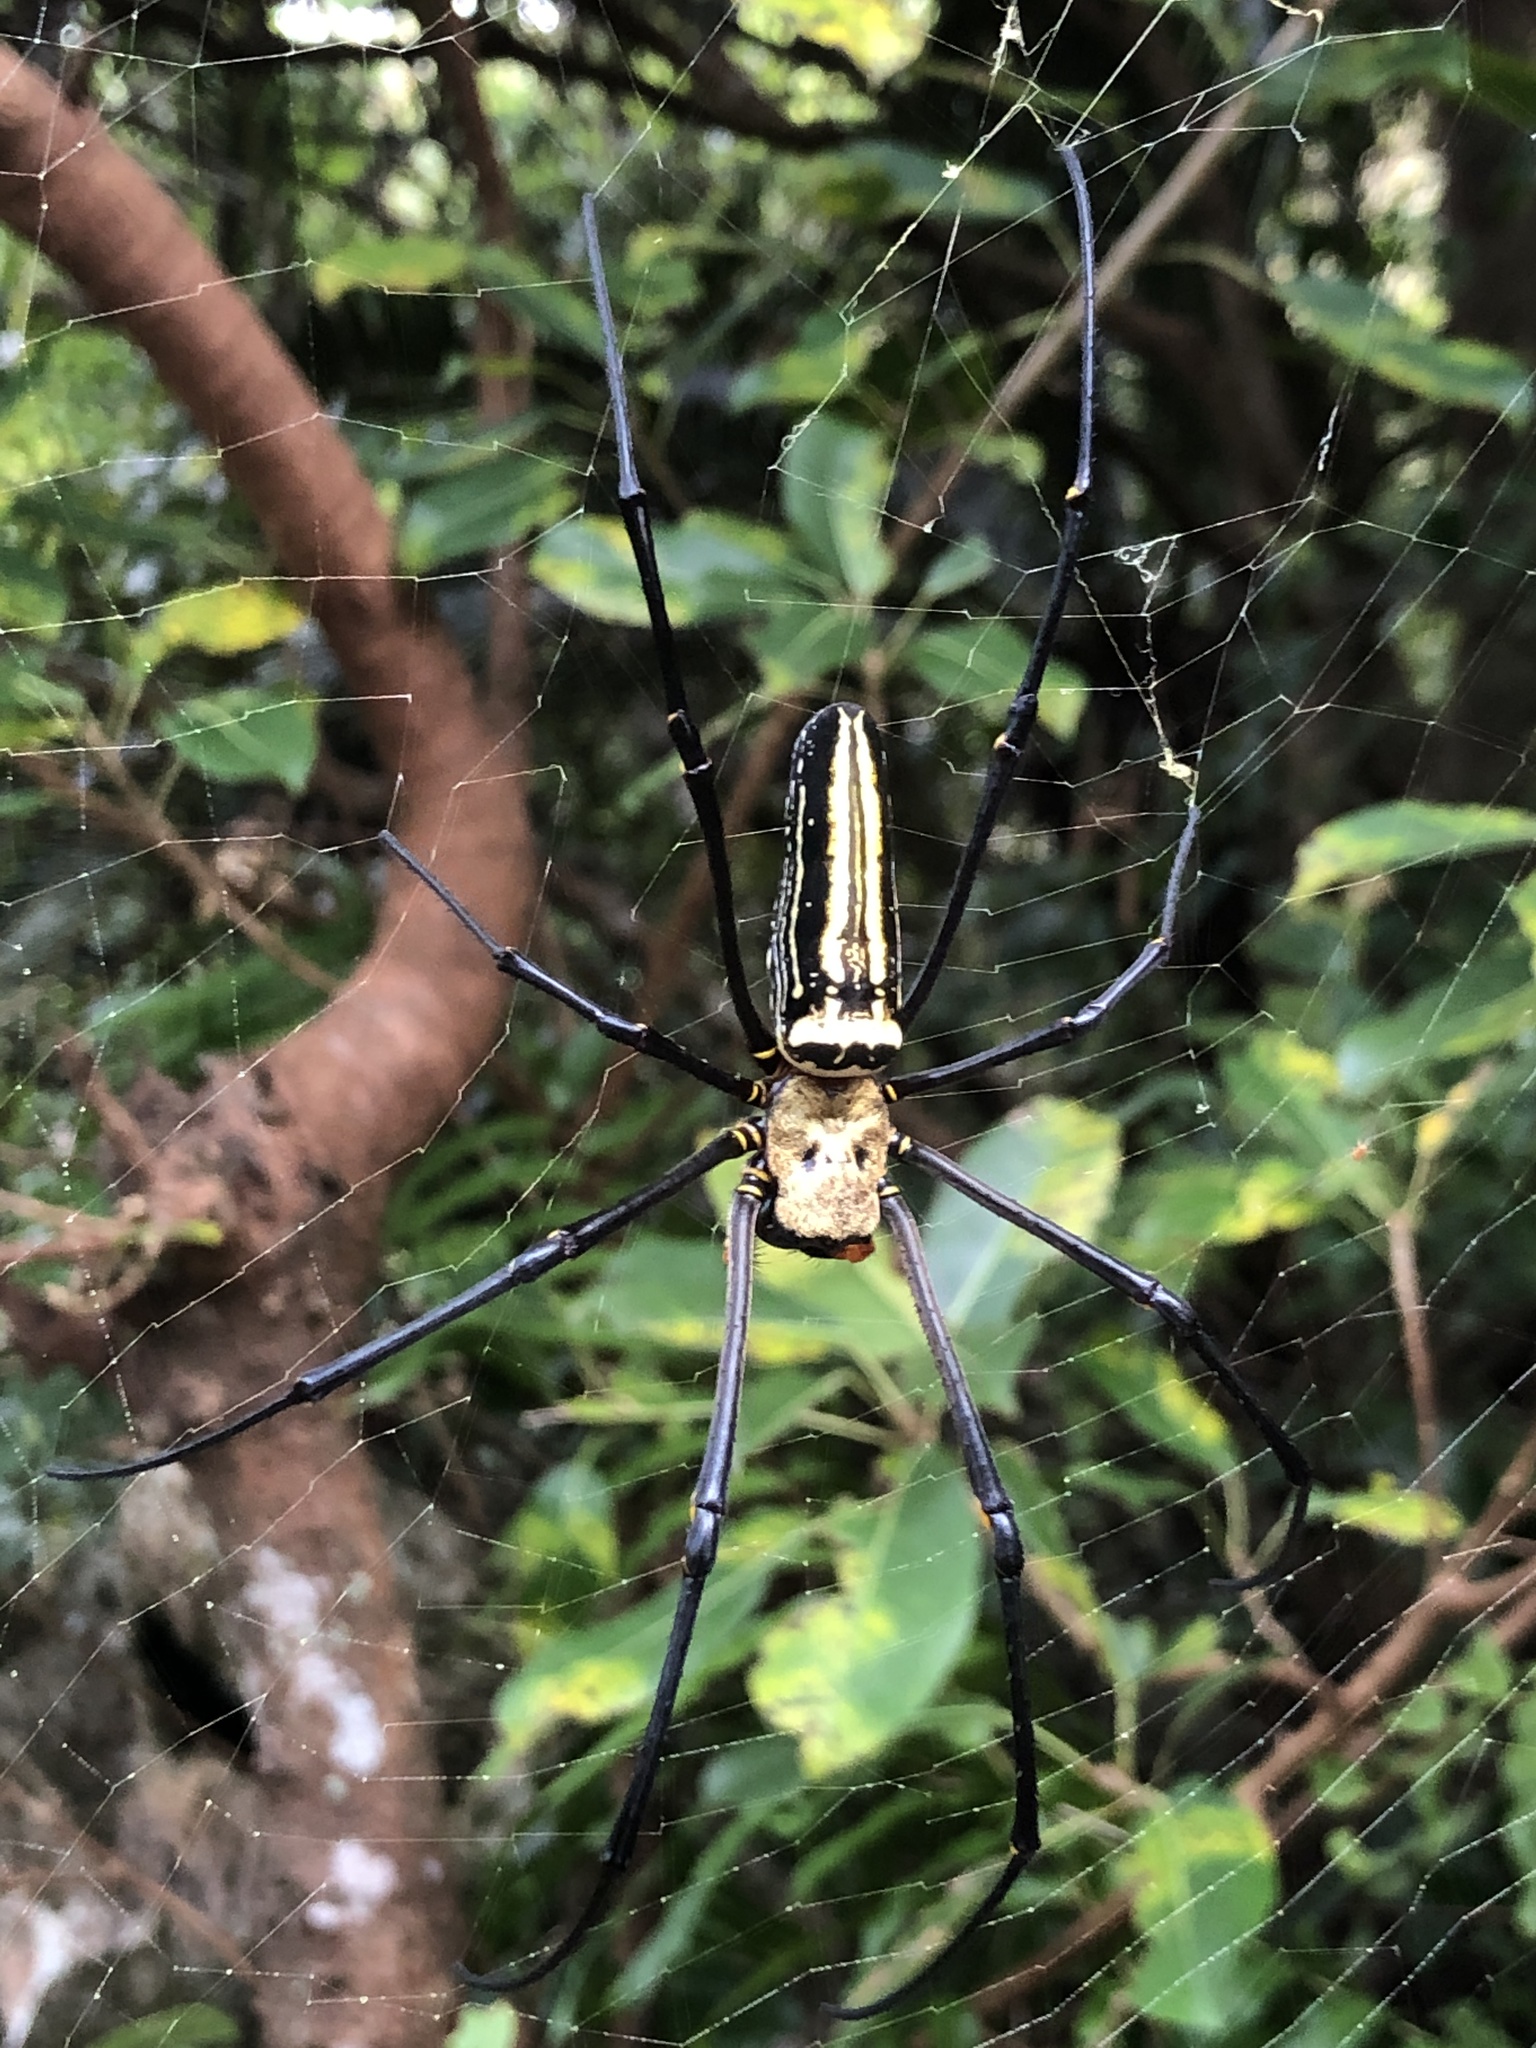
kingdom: Animalia
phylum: Arthropoda
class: Arachnida
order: Araneae
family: Araneidae
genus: Nephila
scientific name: Nephila pilipes
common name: Giant golden orb weaver
